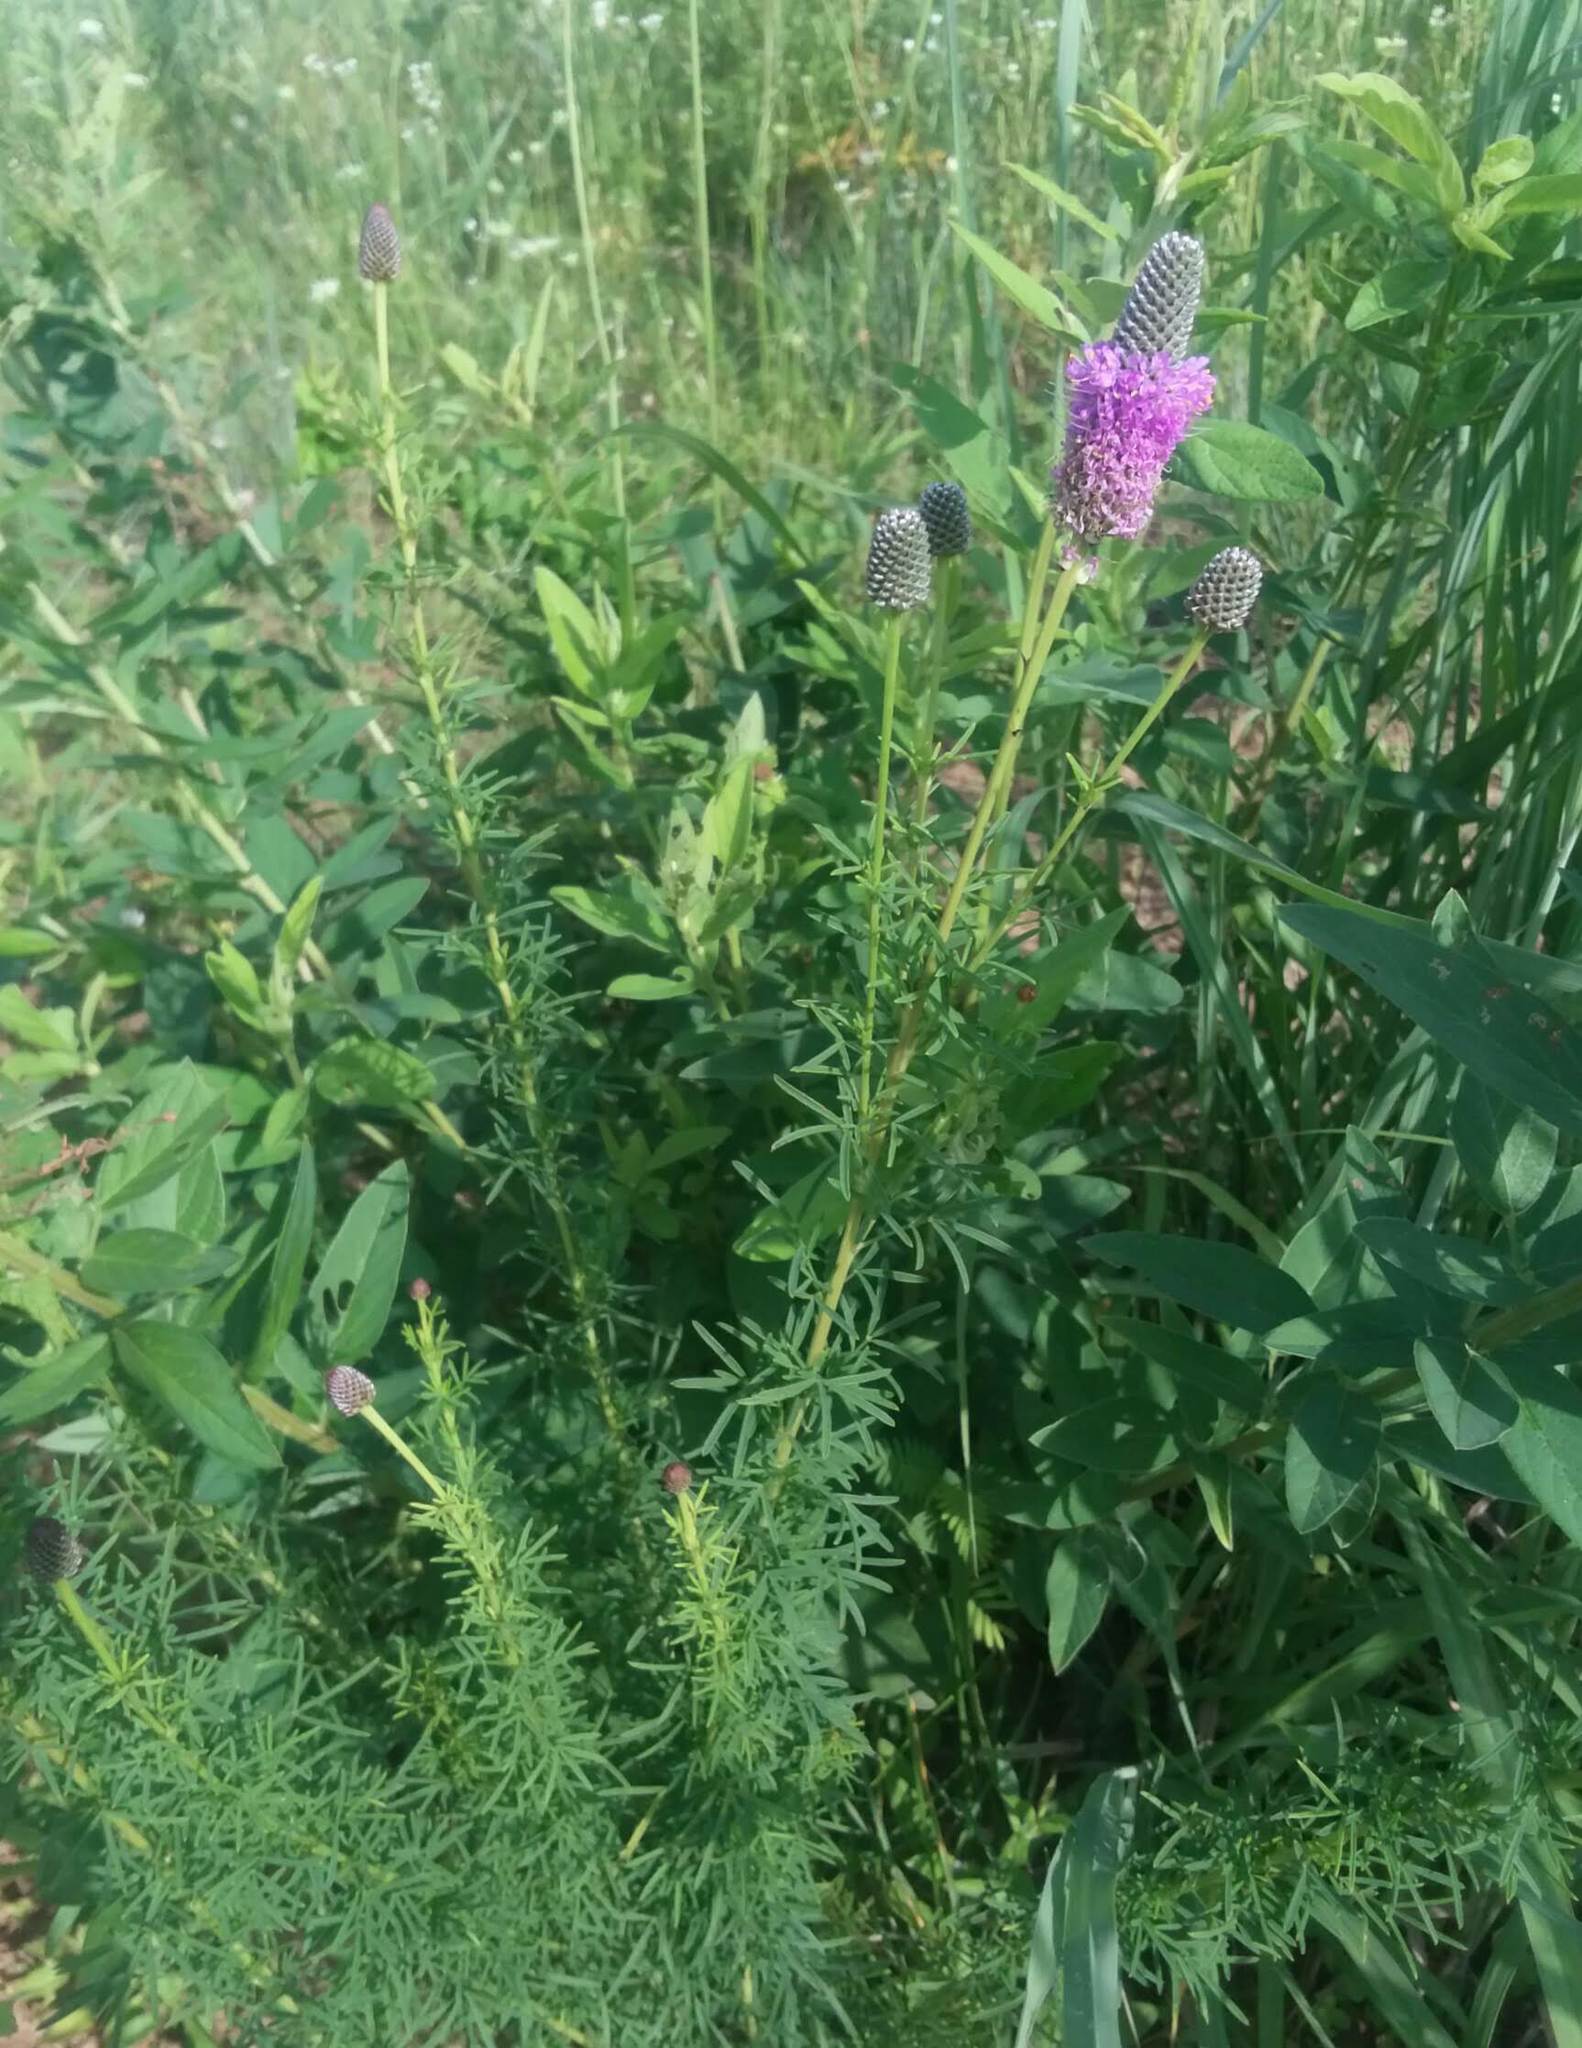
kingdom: Plantae
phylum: Tracheophyta
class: Magnoliopsida
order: Fabales
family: Fabaceae
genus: Dalea
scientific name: Dalea purpurea
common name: Purple prairie-clover
